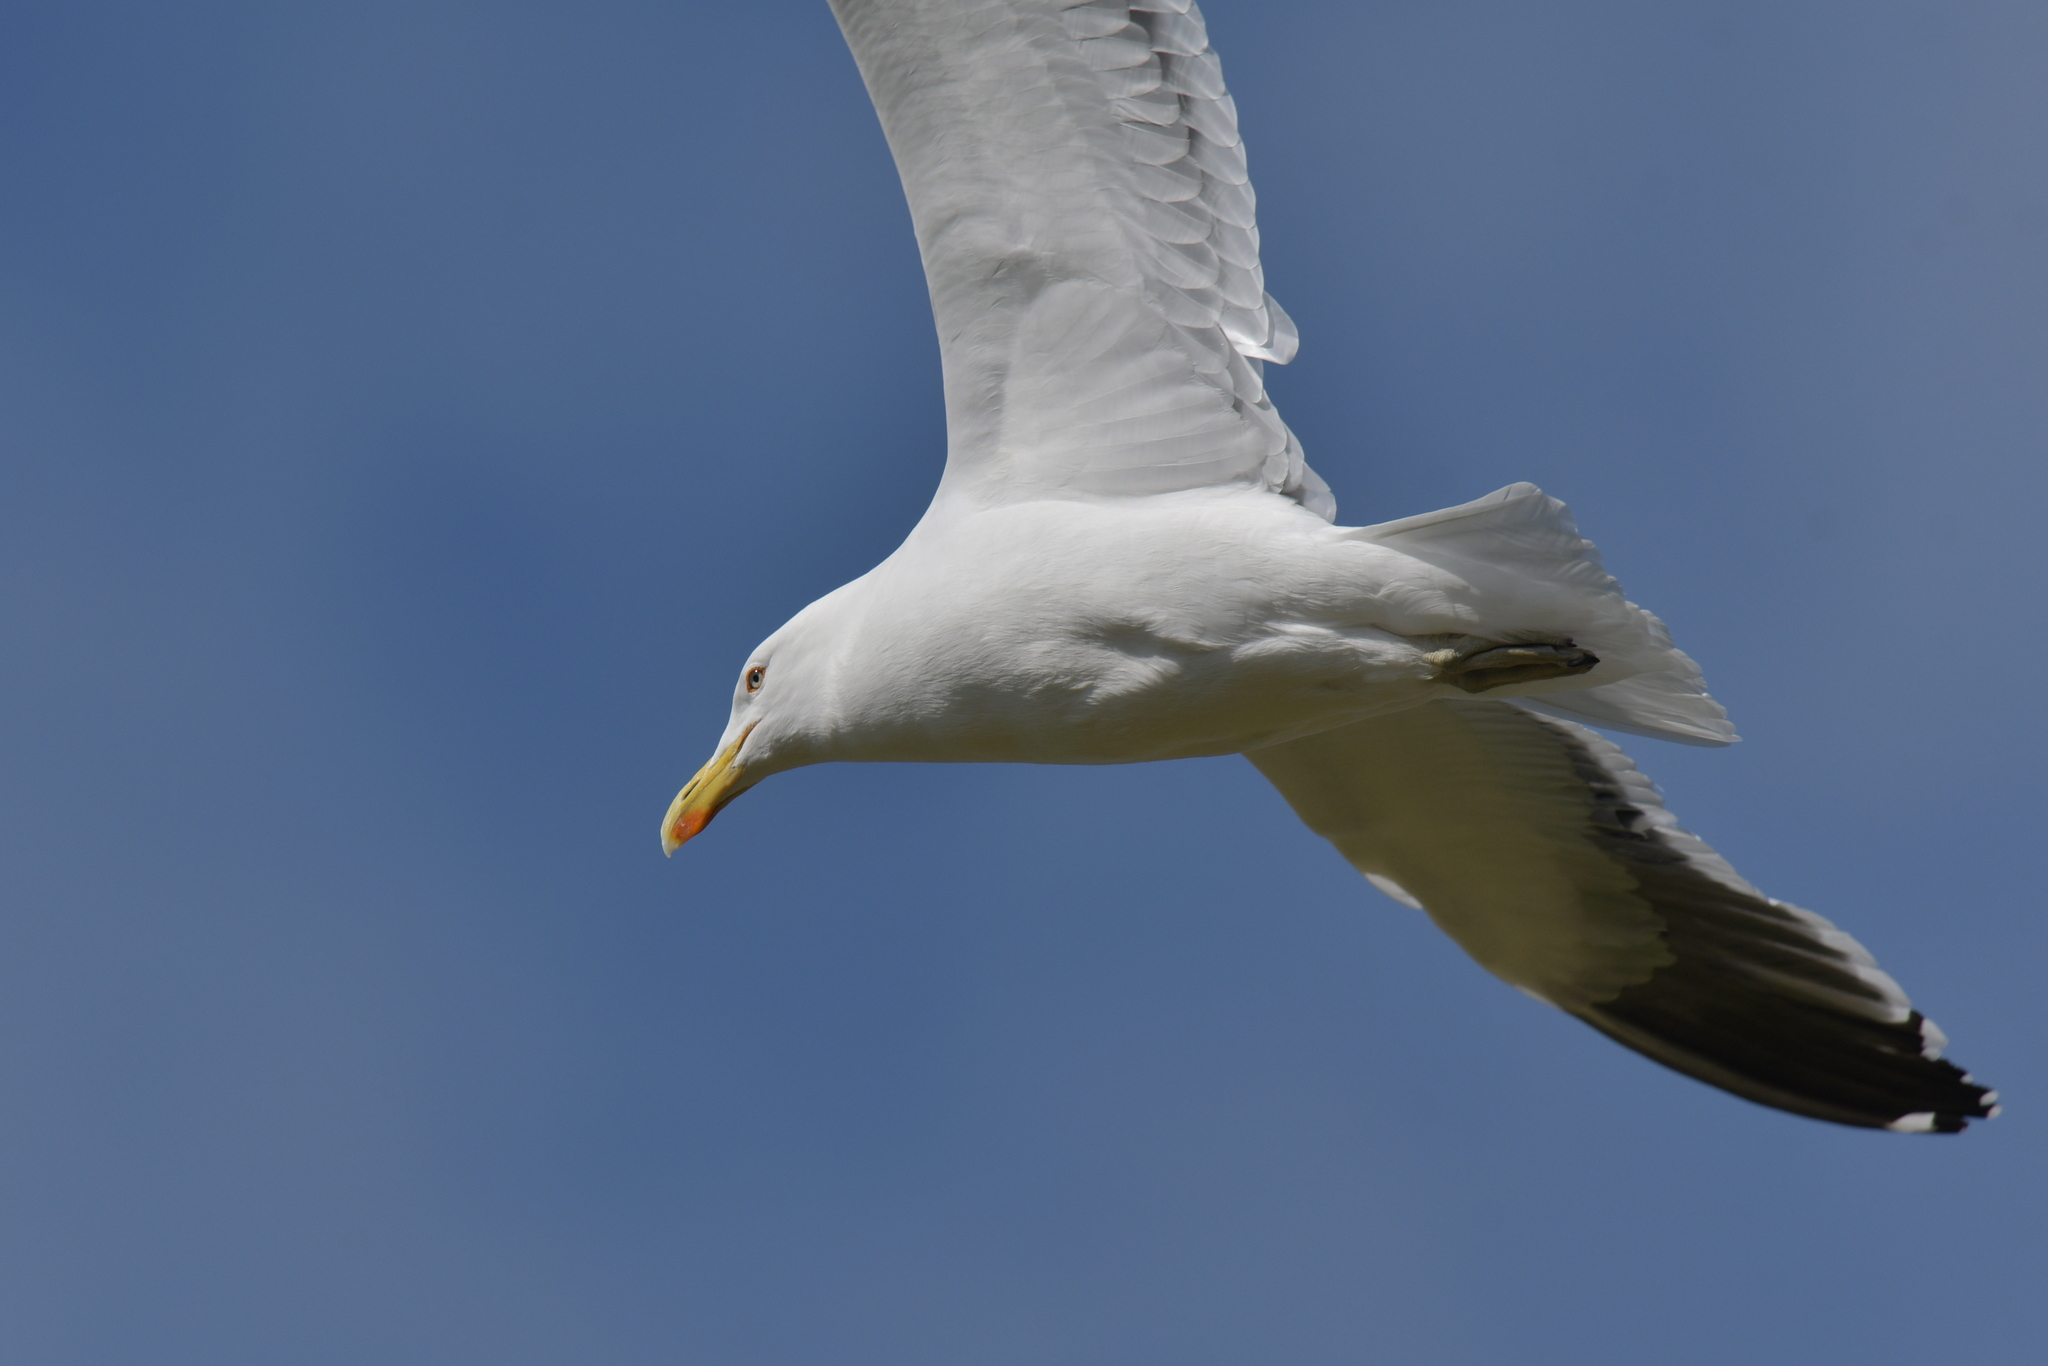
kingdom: Animalia
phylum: Chordata
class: Aves
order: Charadriiformes
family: Laridae
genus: Larus
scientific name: Larus dominicanus
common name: Kelp gull
